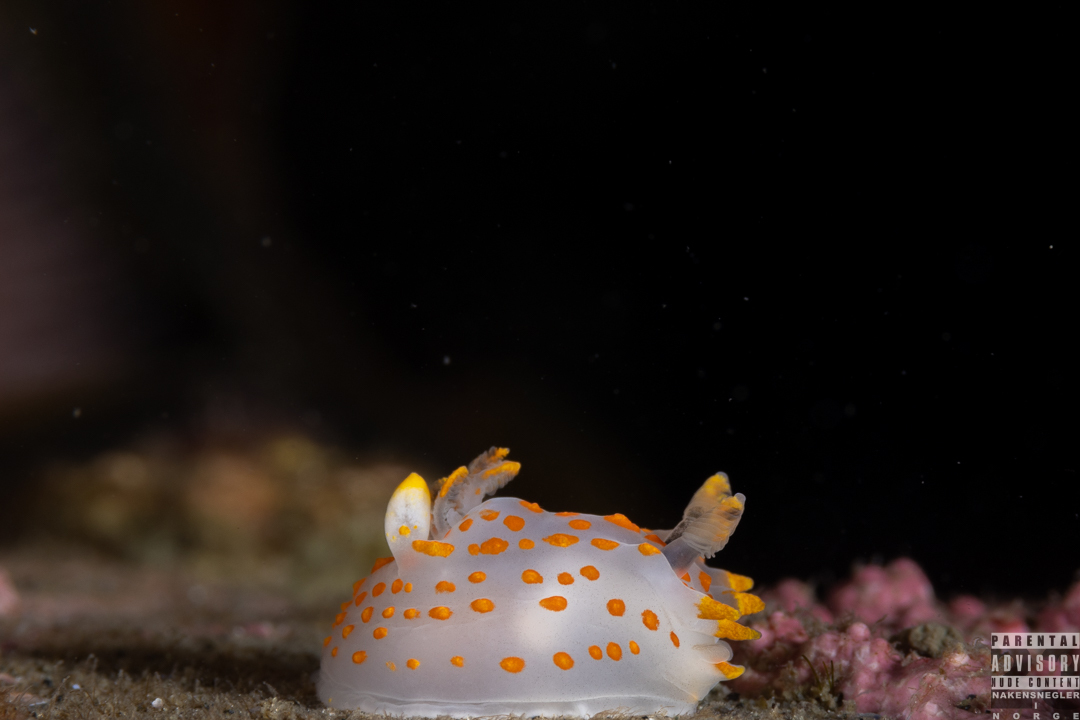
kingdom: Animalia
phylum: Mollusca
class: Gastropoda
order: Nudibranchia
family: Onchidorididae
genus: Onchidoris
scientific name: Onchidoris muricata
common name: Rough doris
